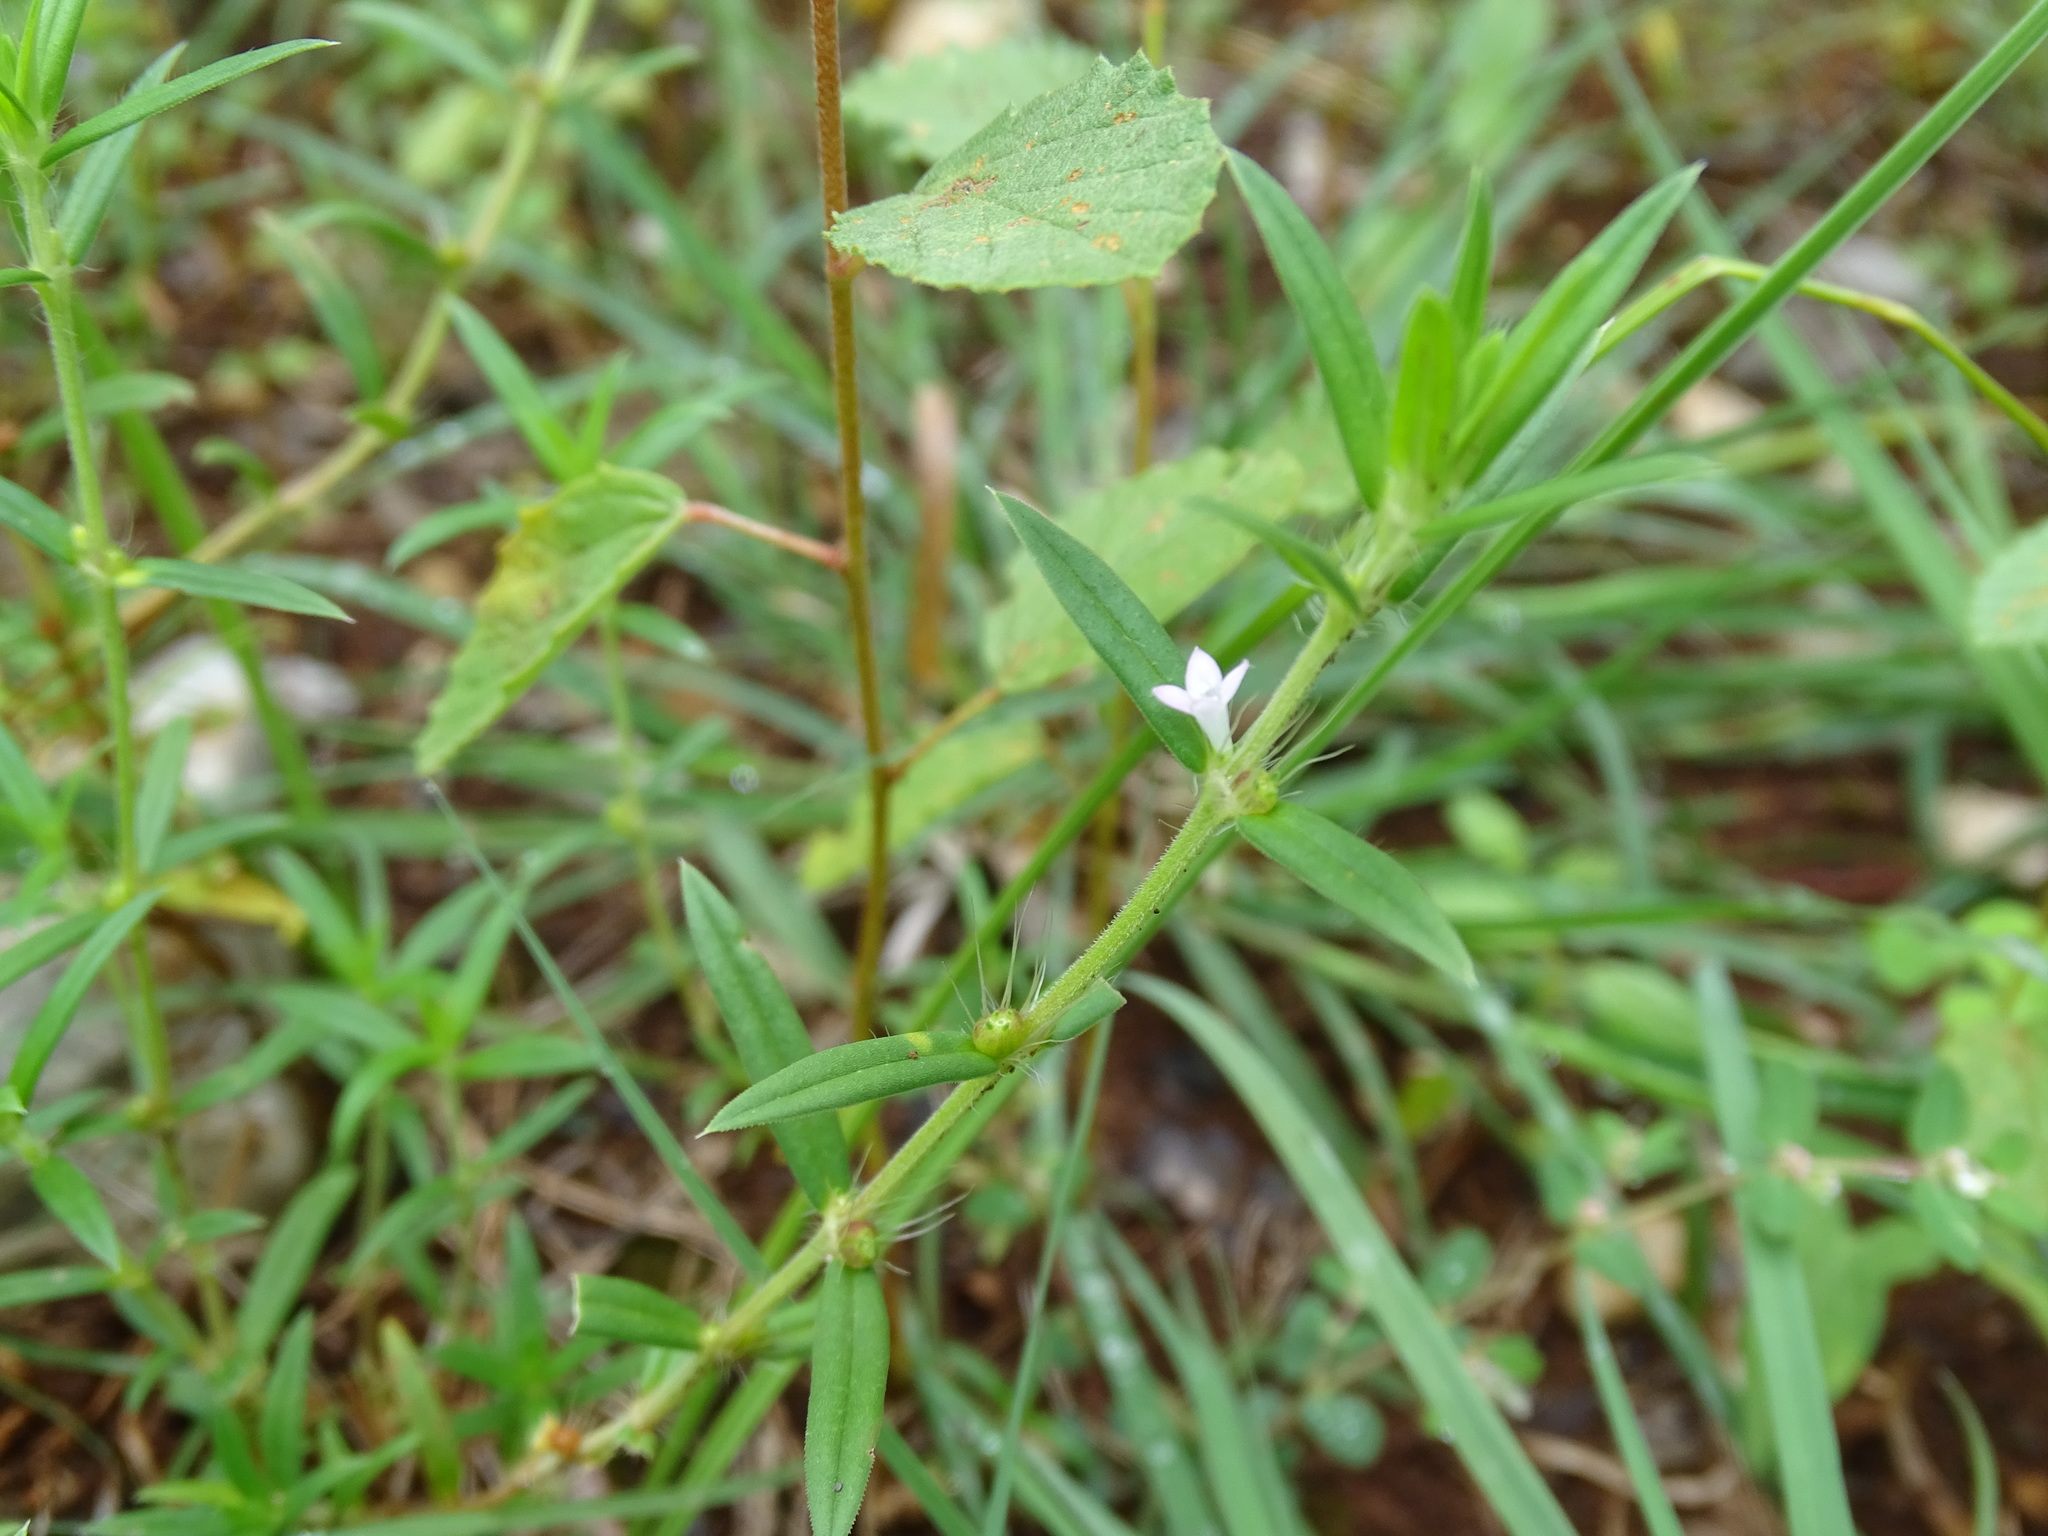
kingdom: Plantae
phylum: Tracheophyta
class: Magnoliopsida
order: Gentianales
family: Rubiaceae
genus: Hexasepalum
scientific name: Hexasepalum teres
